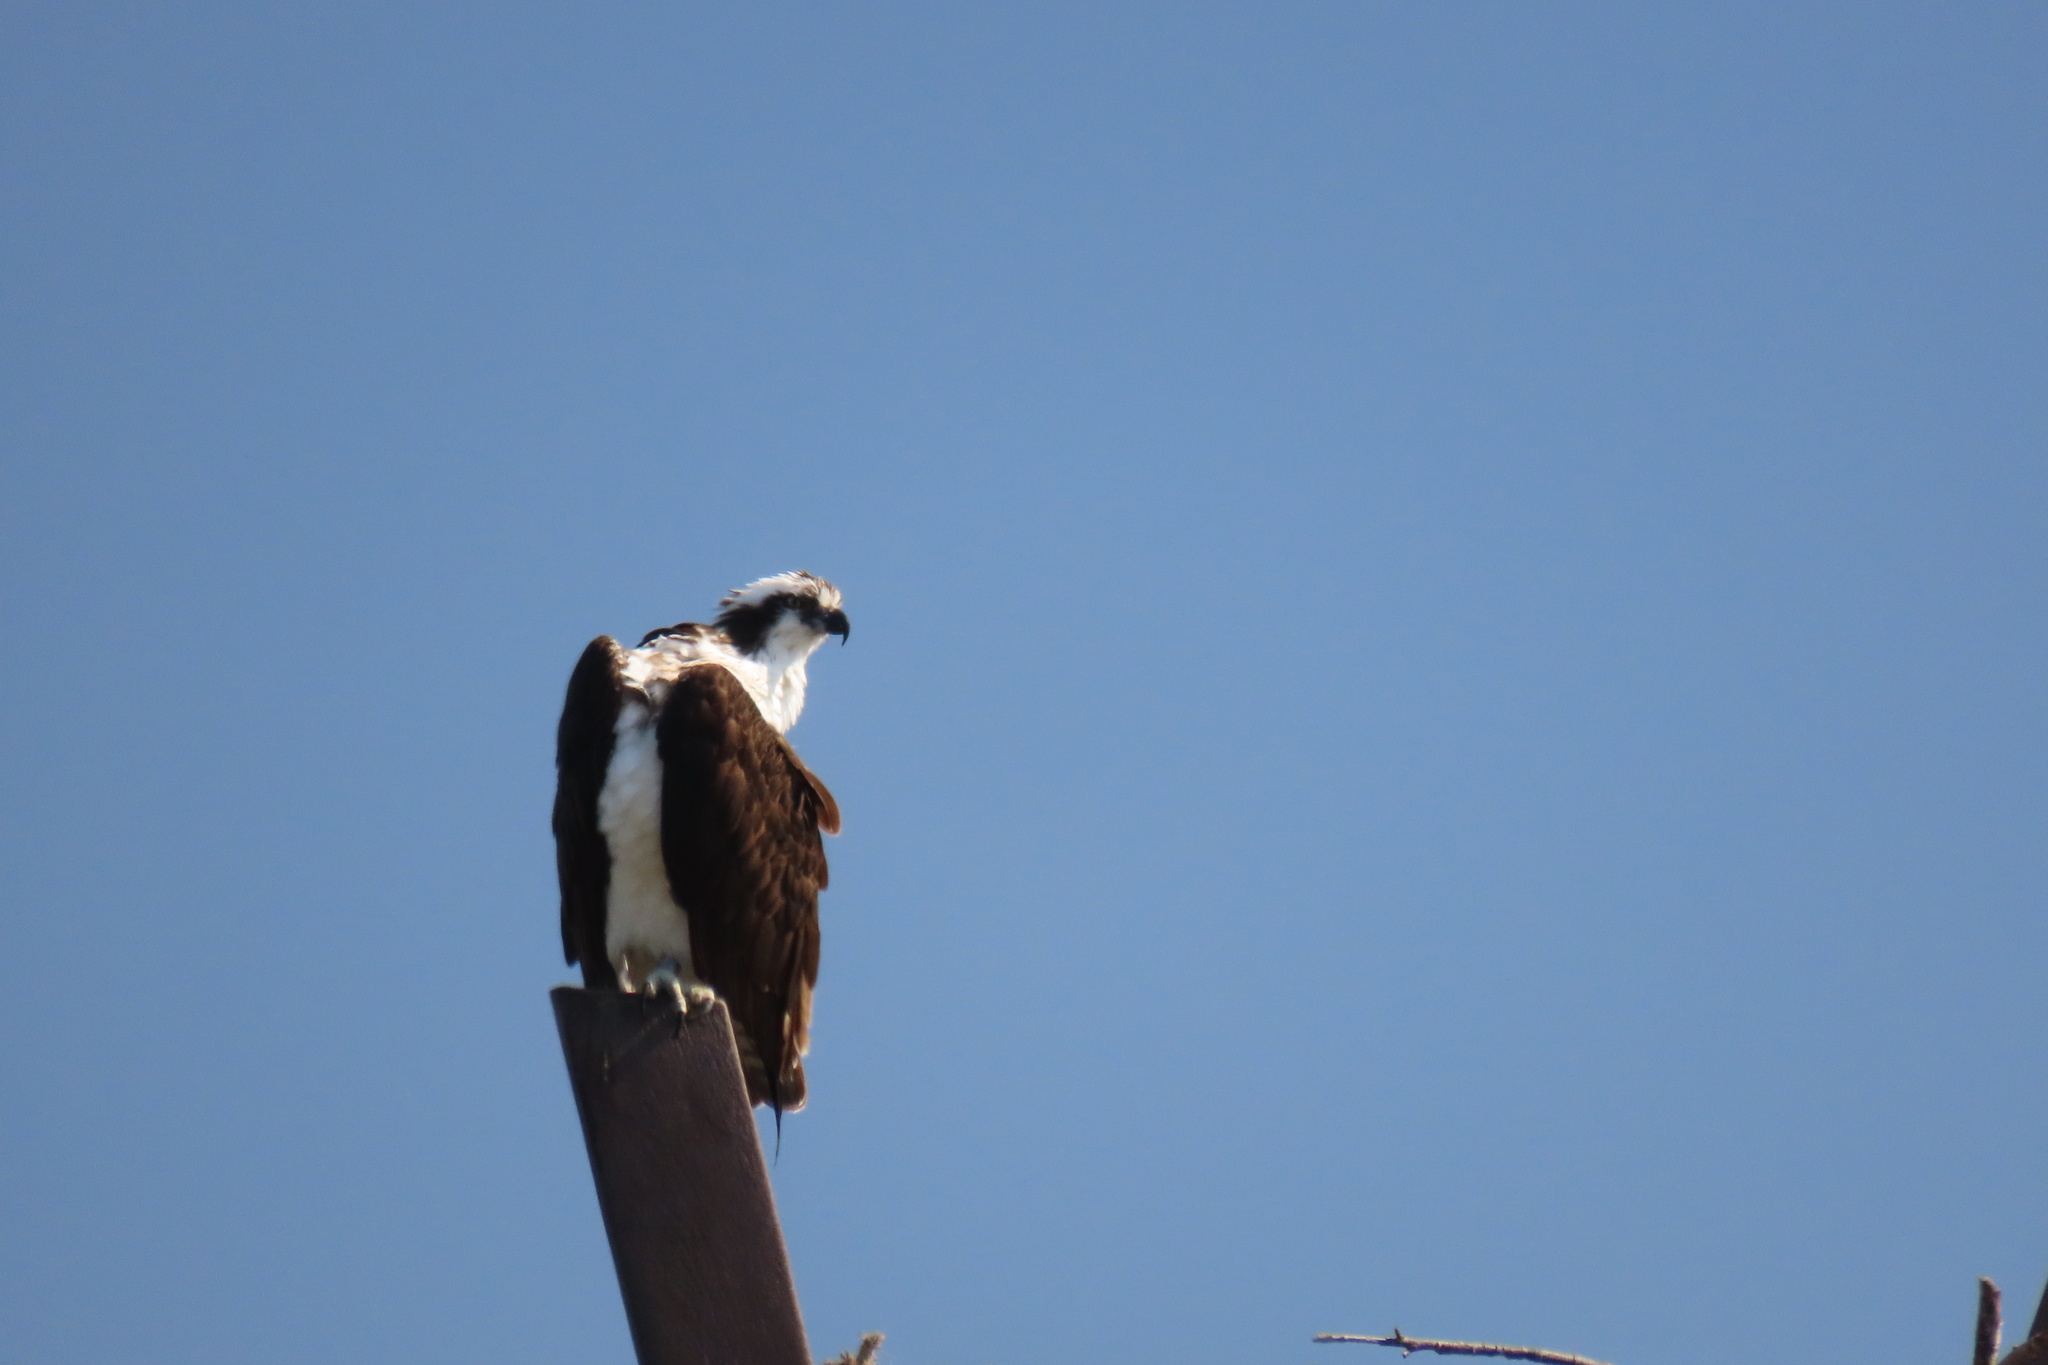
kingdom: Animalia
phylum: Chordata
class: Aves
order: Accipitriformes
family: Pandionidae
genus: Pandion
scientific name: Pandion haliaetus
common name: Osprey
